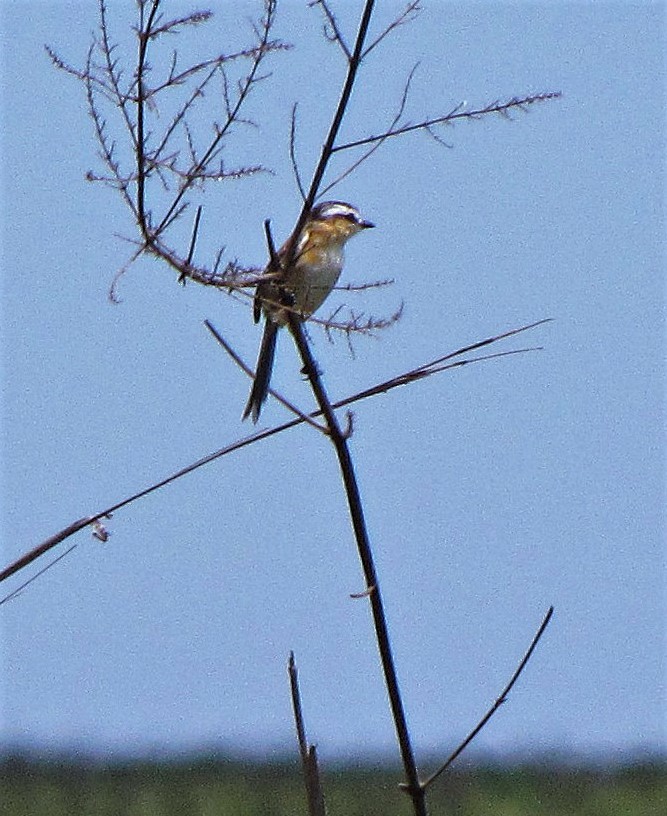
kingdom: Animalia
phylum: Chordata
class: Aves
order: Passeriformes
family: Tyrannidae
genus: Culicivora
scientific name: Culicivora caudacuta
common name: Sharp-tailed grass tyrant
